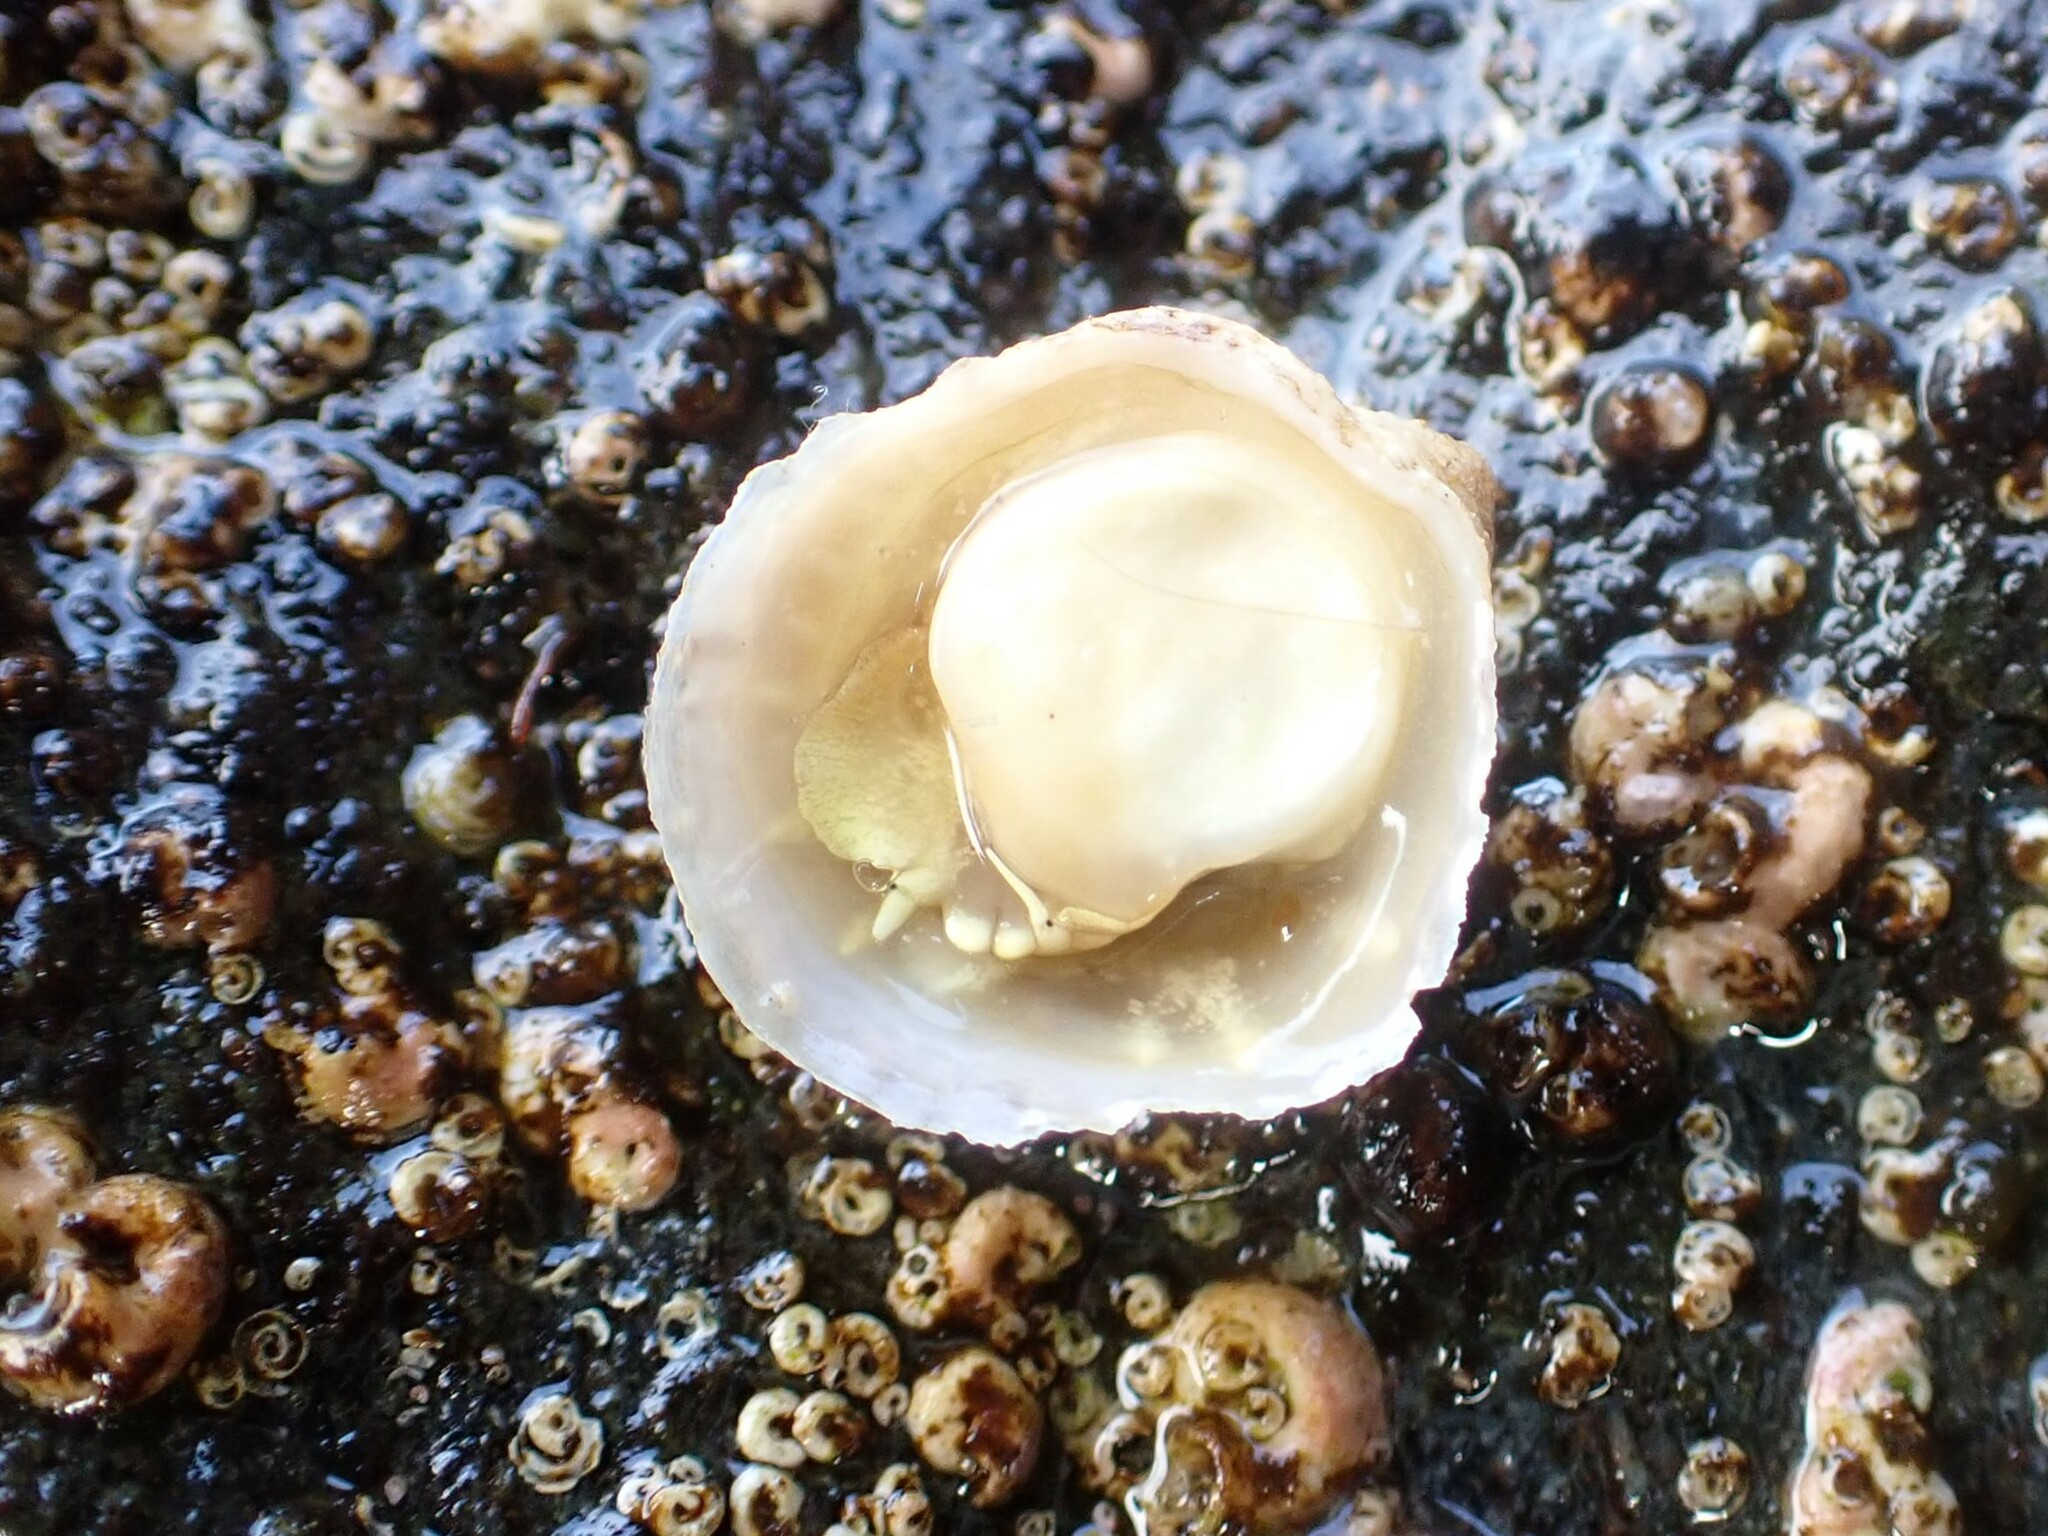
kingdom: Animalia
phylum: Mollusca
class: Gastropoda
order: Littorinimorpha
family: Calyptraeidae
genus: Crepipatella
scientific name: Crepipatella lingulata
